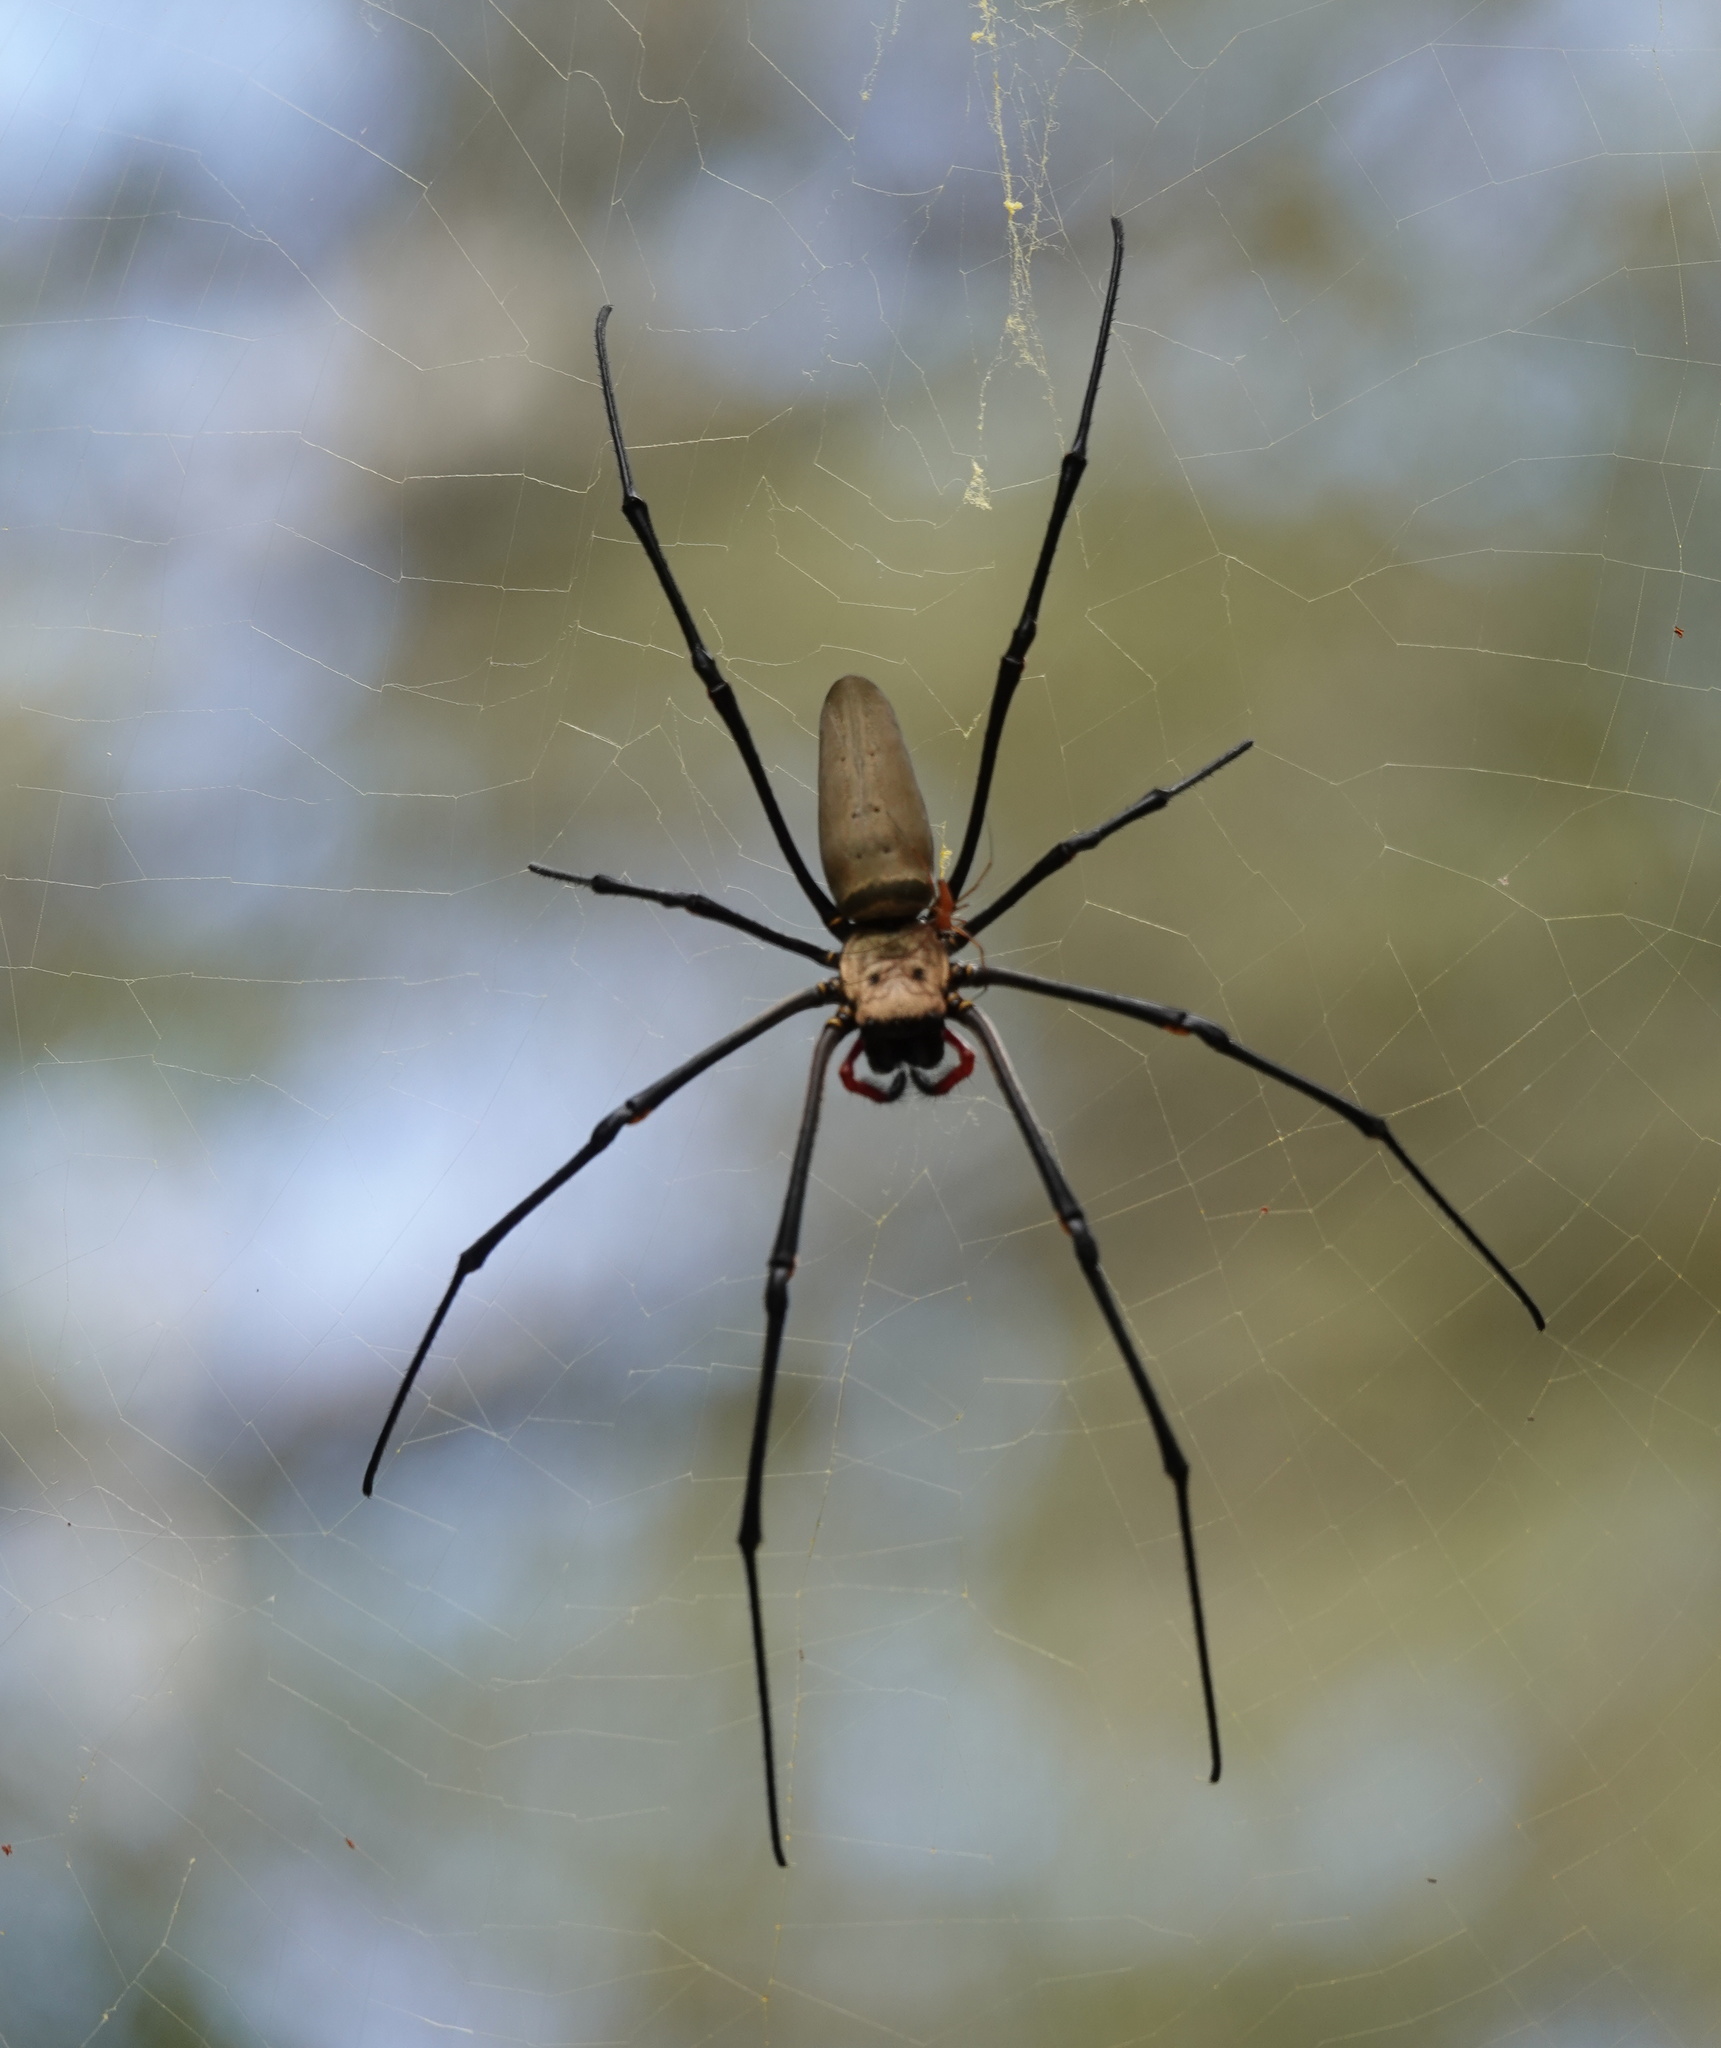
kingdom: Animalia
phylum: Arthropoda
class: Arachnida
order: Araneae
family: Araneidae
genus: Nephila
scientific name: Nephila pilipes
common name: Giant golden orb weaver
